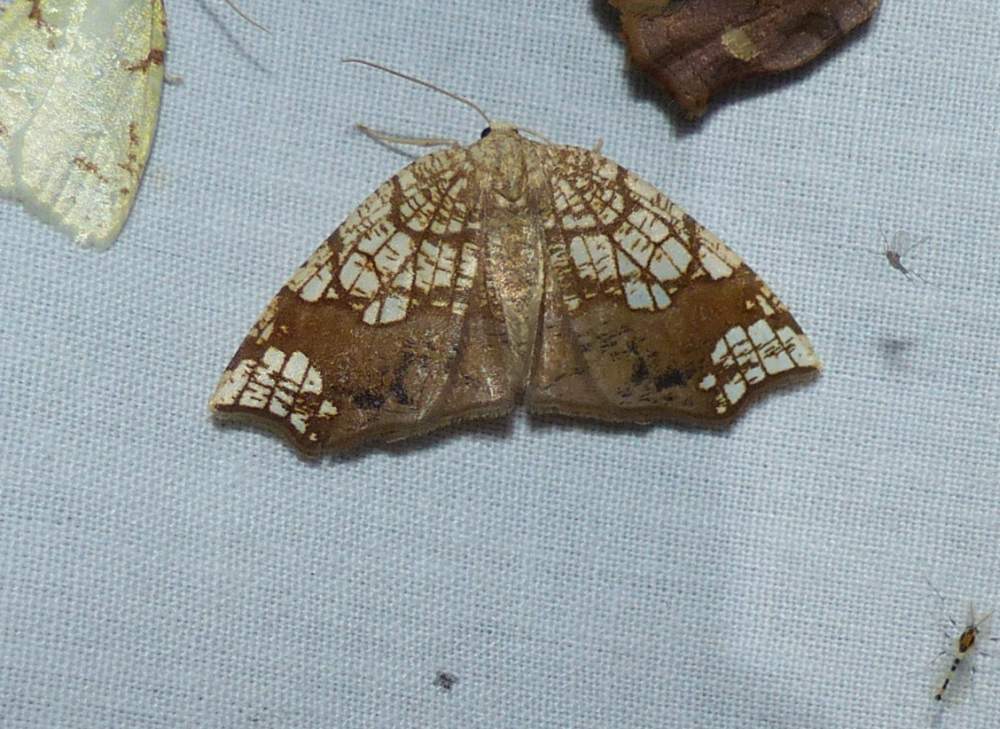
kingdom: Animalia
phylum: Arthropoda
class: Insecta
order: Lepidoptera
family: Geometridae
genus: Nematocampa
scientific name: Nematocampa resistaria
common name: Horned spanworm moth
